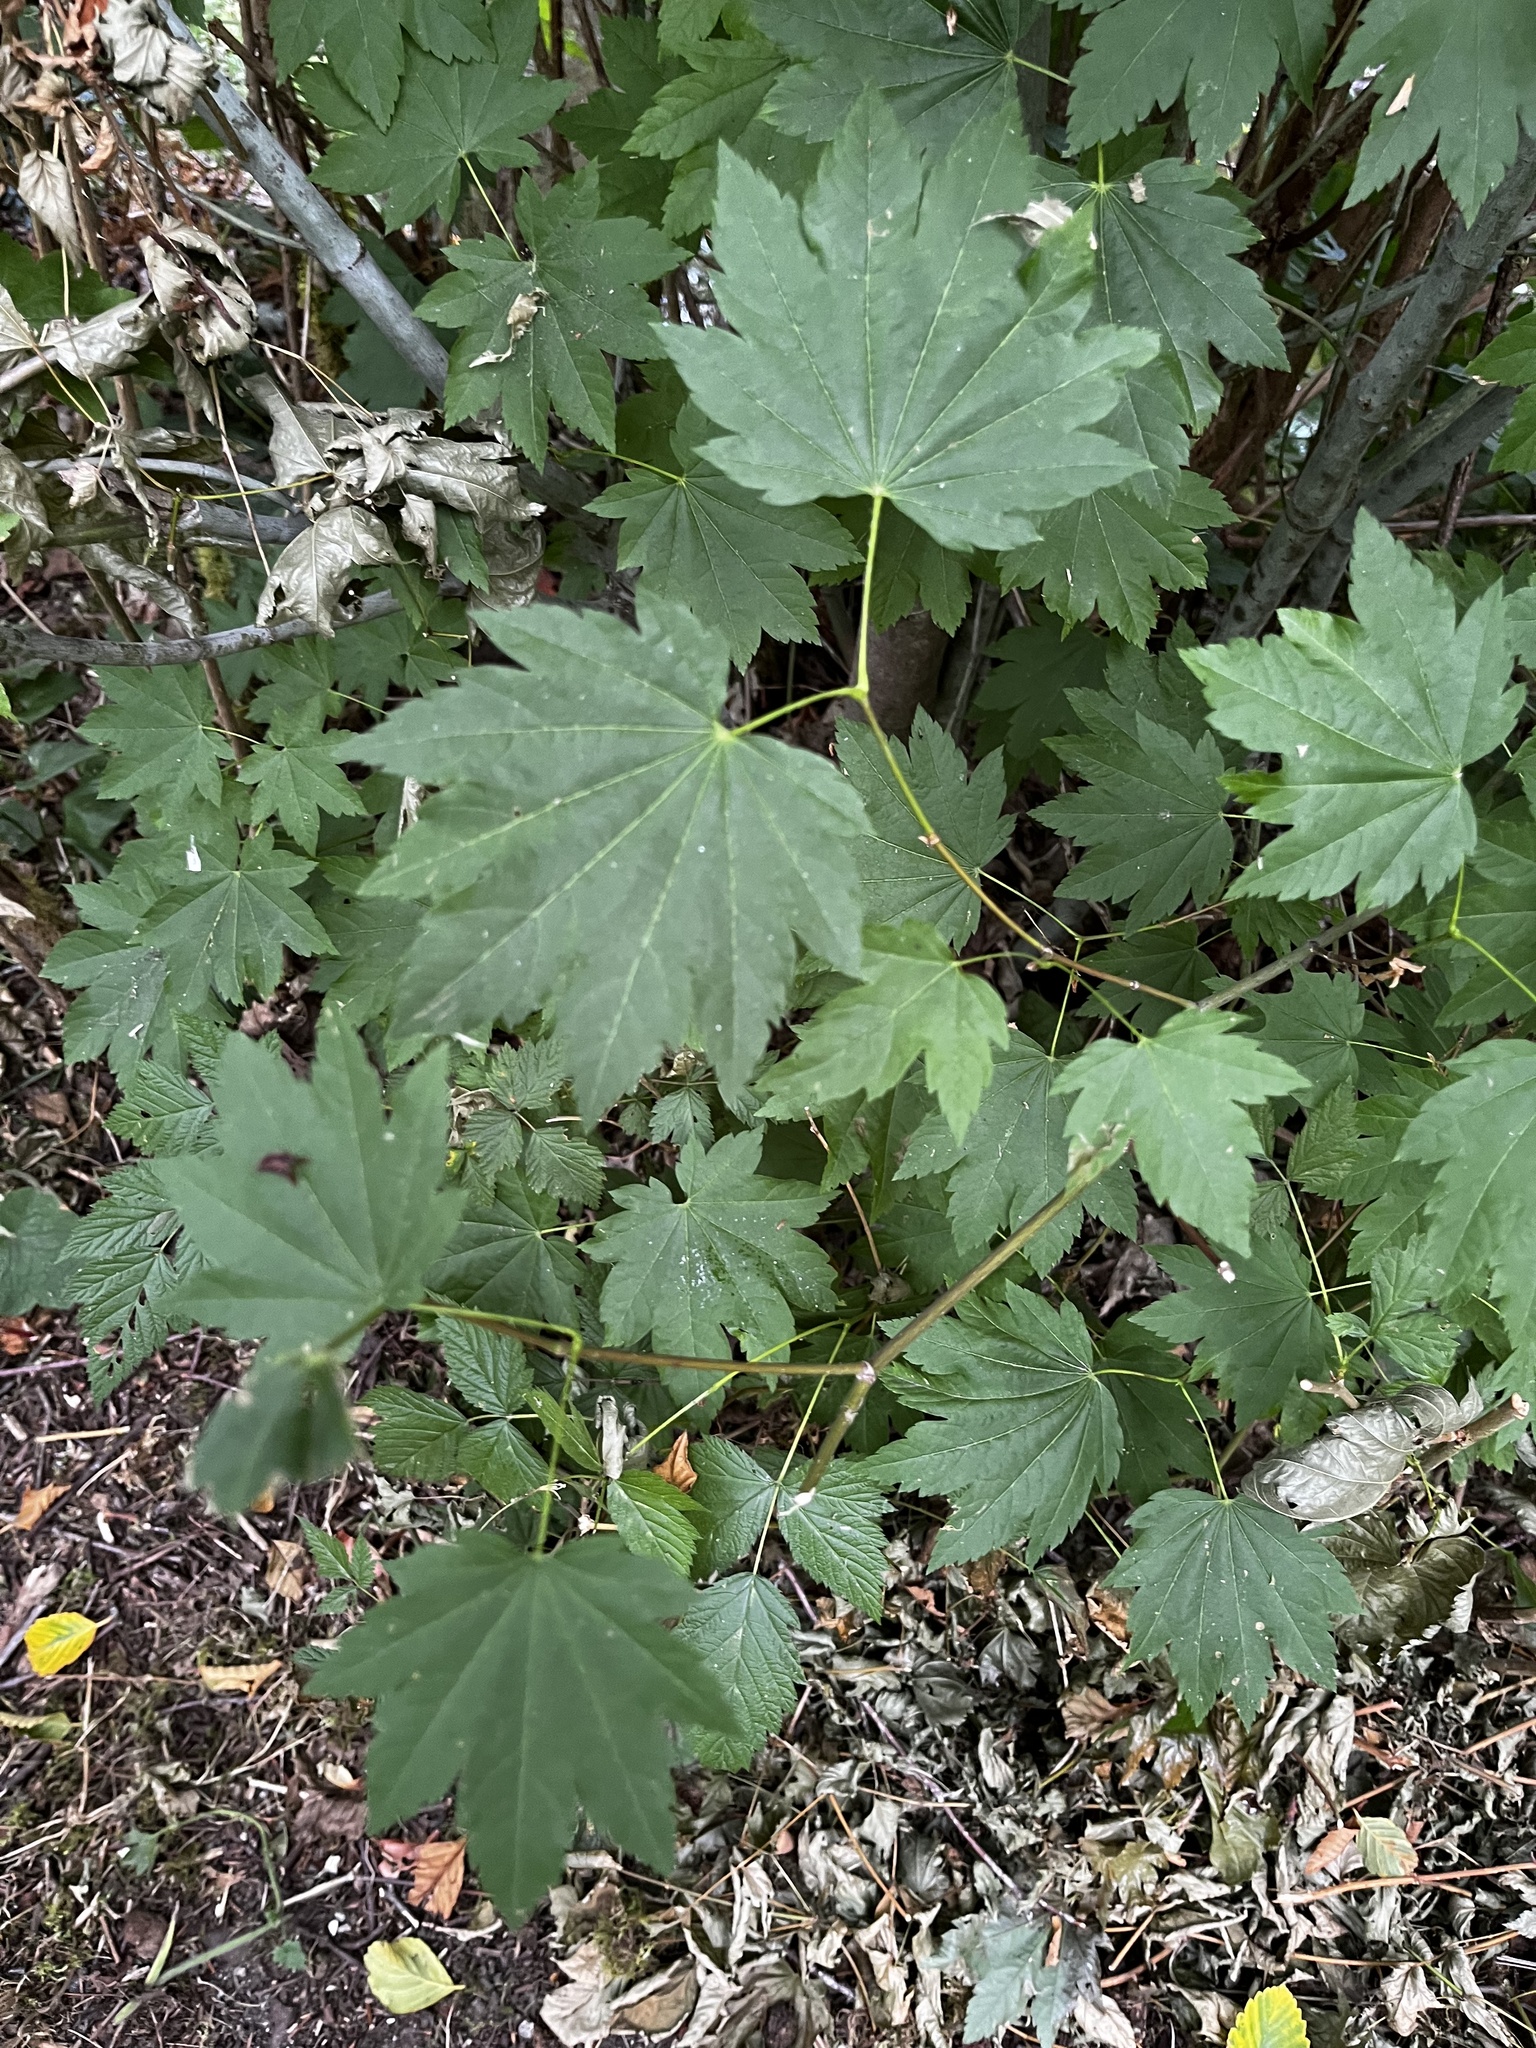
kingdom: Plantae
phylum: Tracheophyta
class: Magnoliopsida
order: Sapindales
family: Sapindaceae
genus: Acer
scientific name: Acer circinatum
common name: Vine maple
